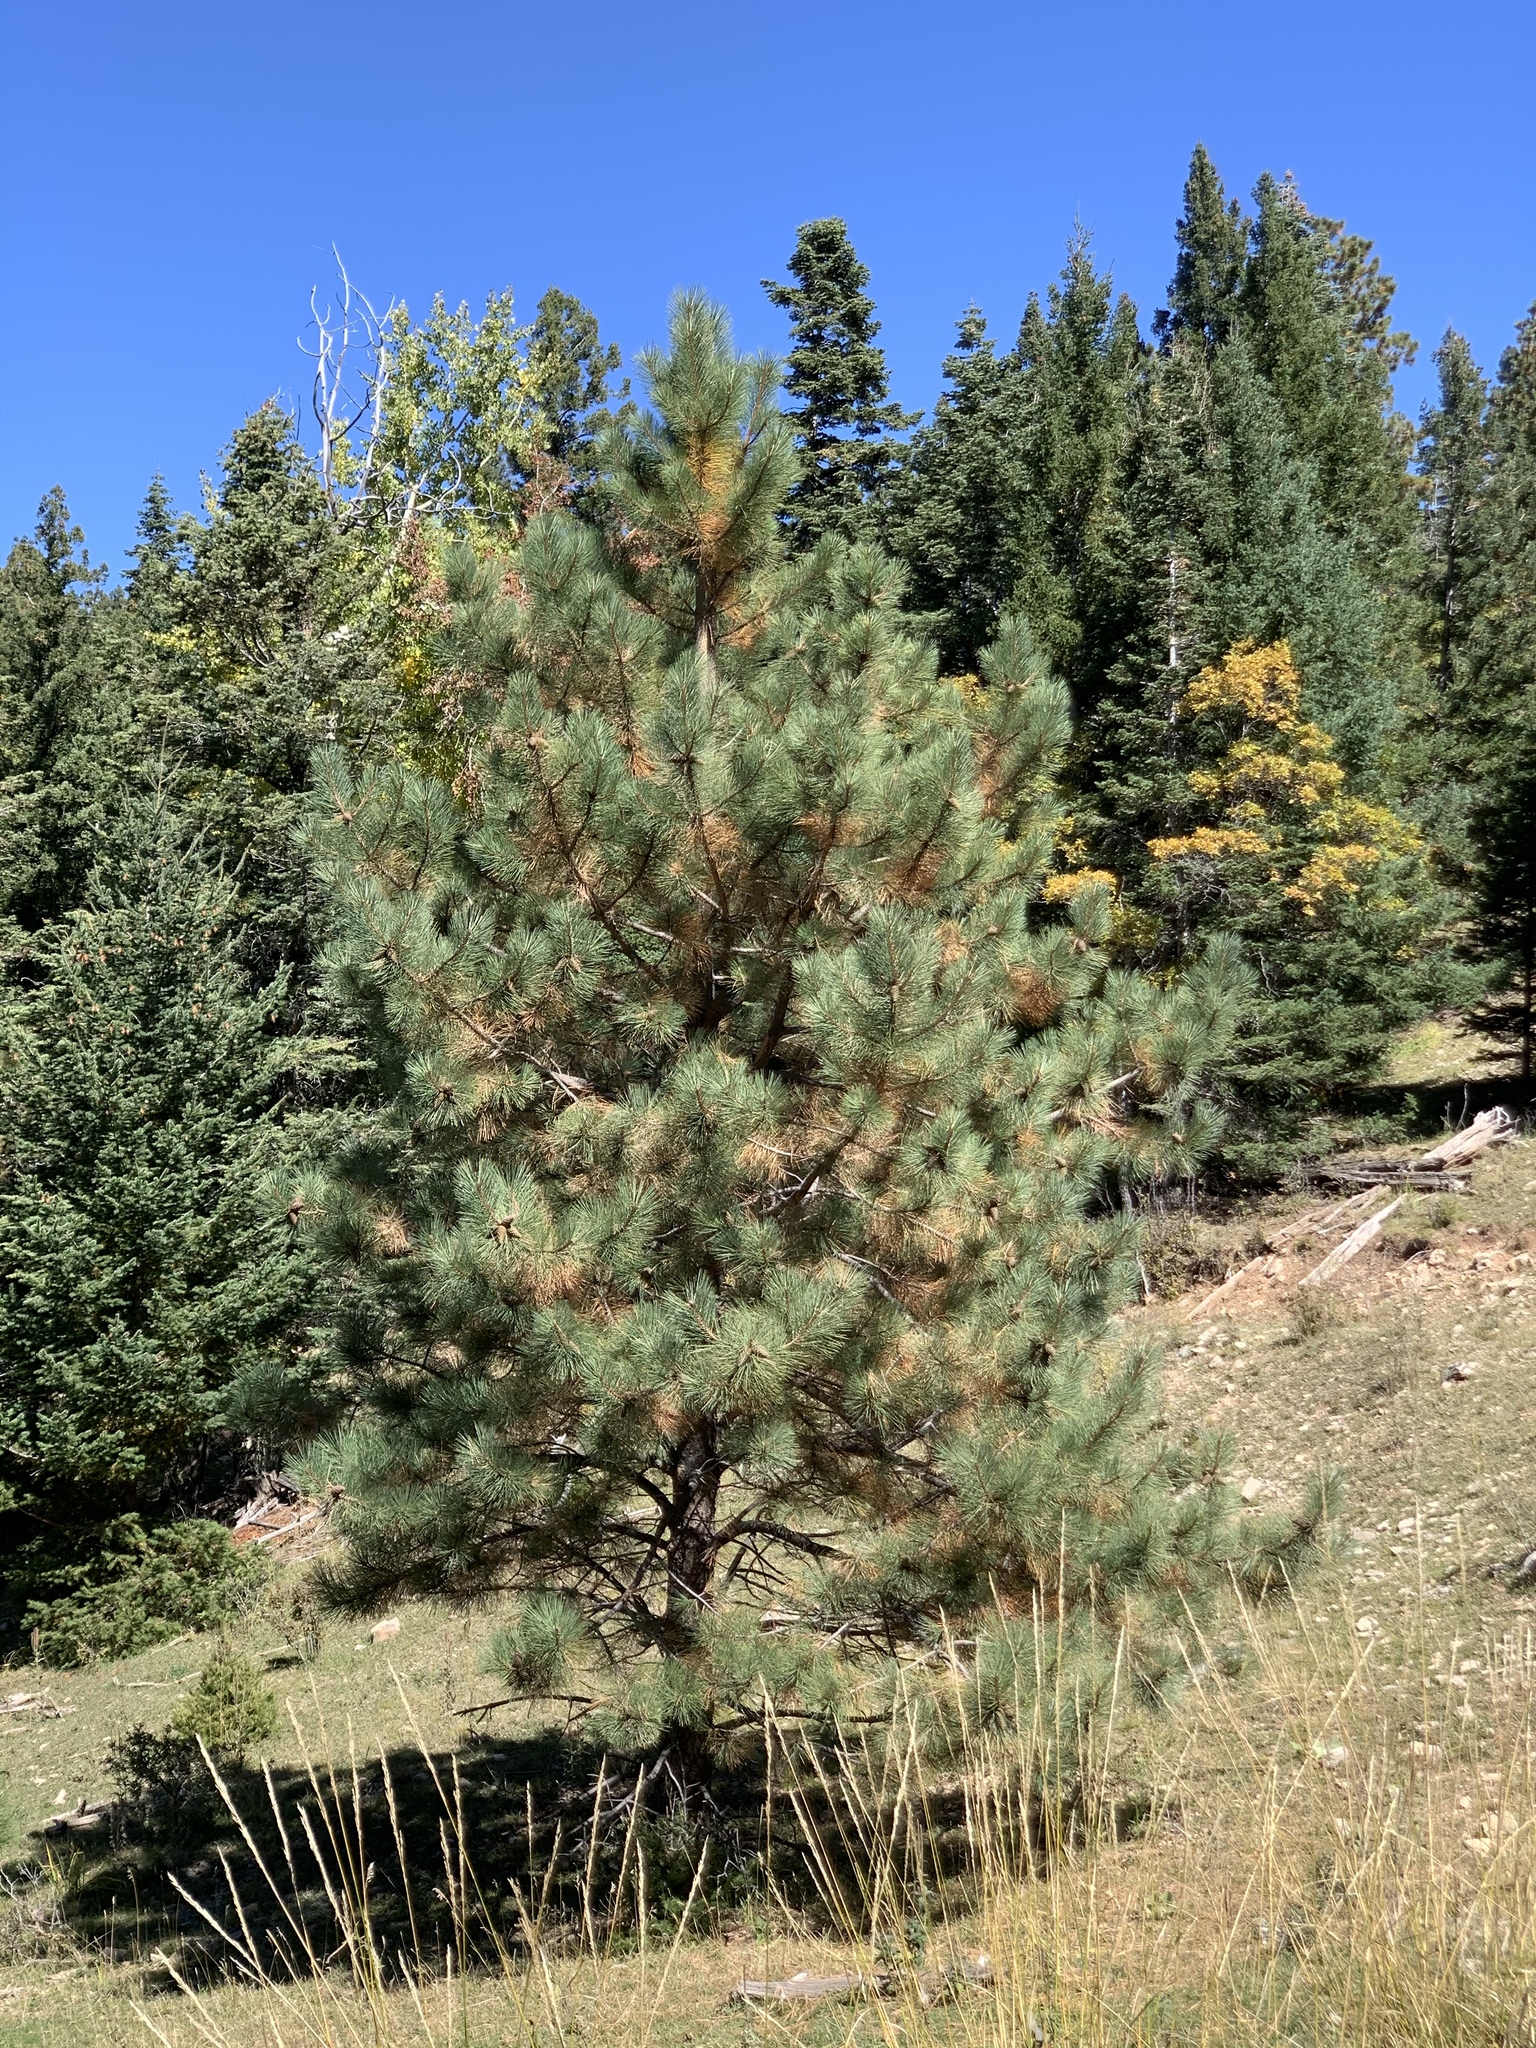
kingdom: Plantae
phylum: Tracheophyta
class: Pinopsida
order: Pinales
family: Pinaceae
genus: Pinus
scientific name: Pinus ponderosa
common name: Western yellow-pine
